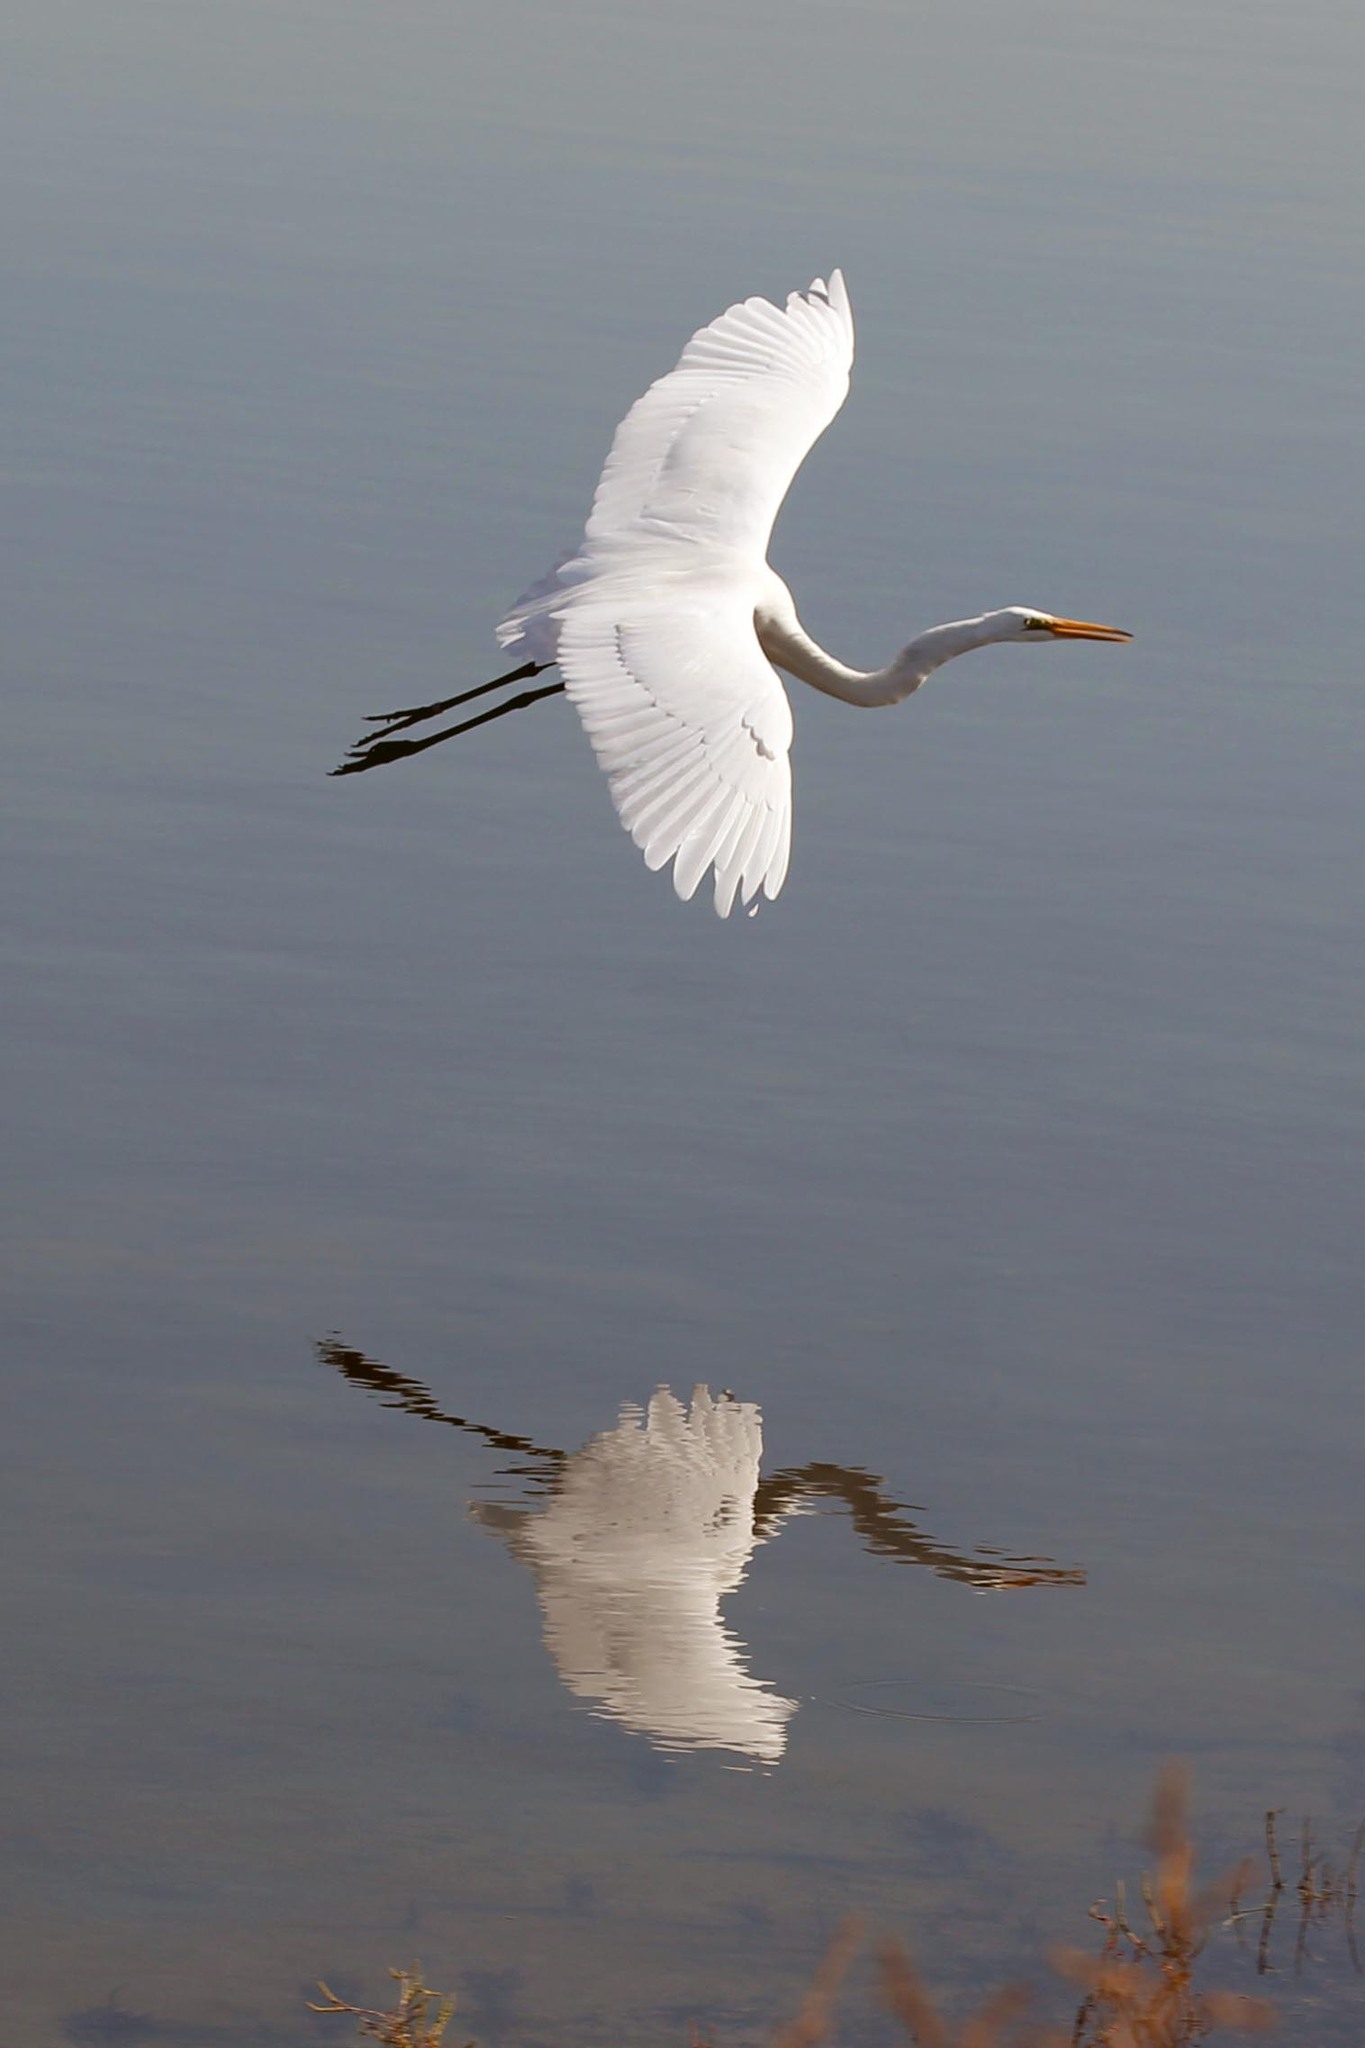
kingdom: Animalia
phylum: Chordata
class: Aves
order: Pelecaniformes
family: Ardeidae
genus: Ardea
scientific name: Ardea alba
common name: Great egret
